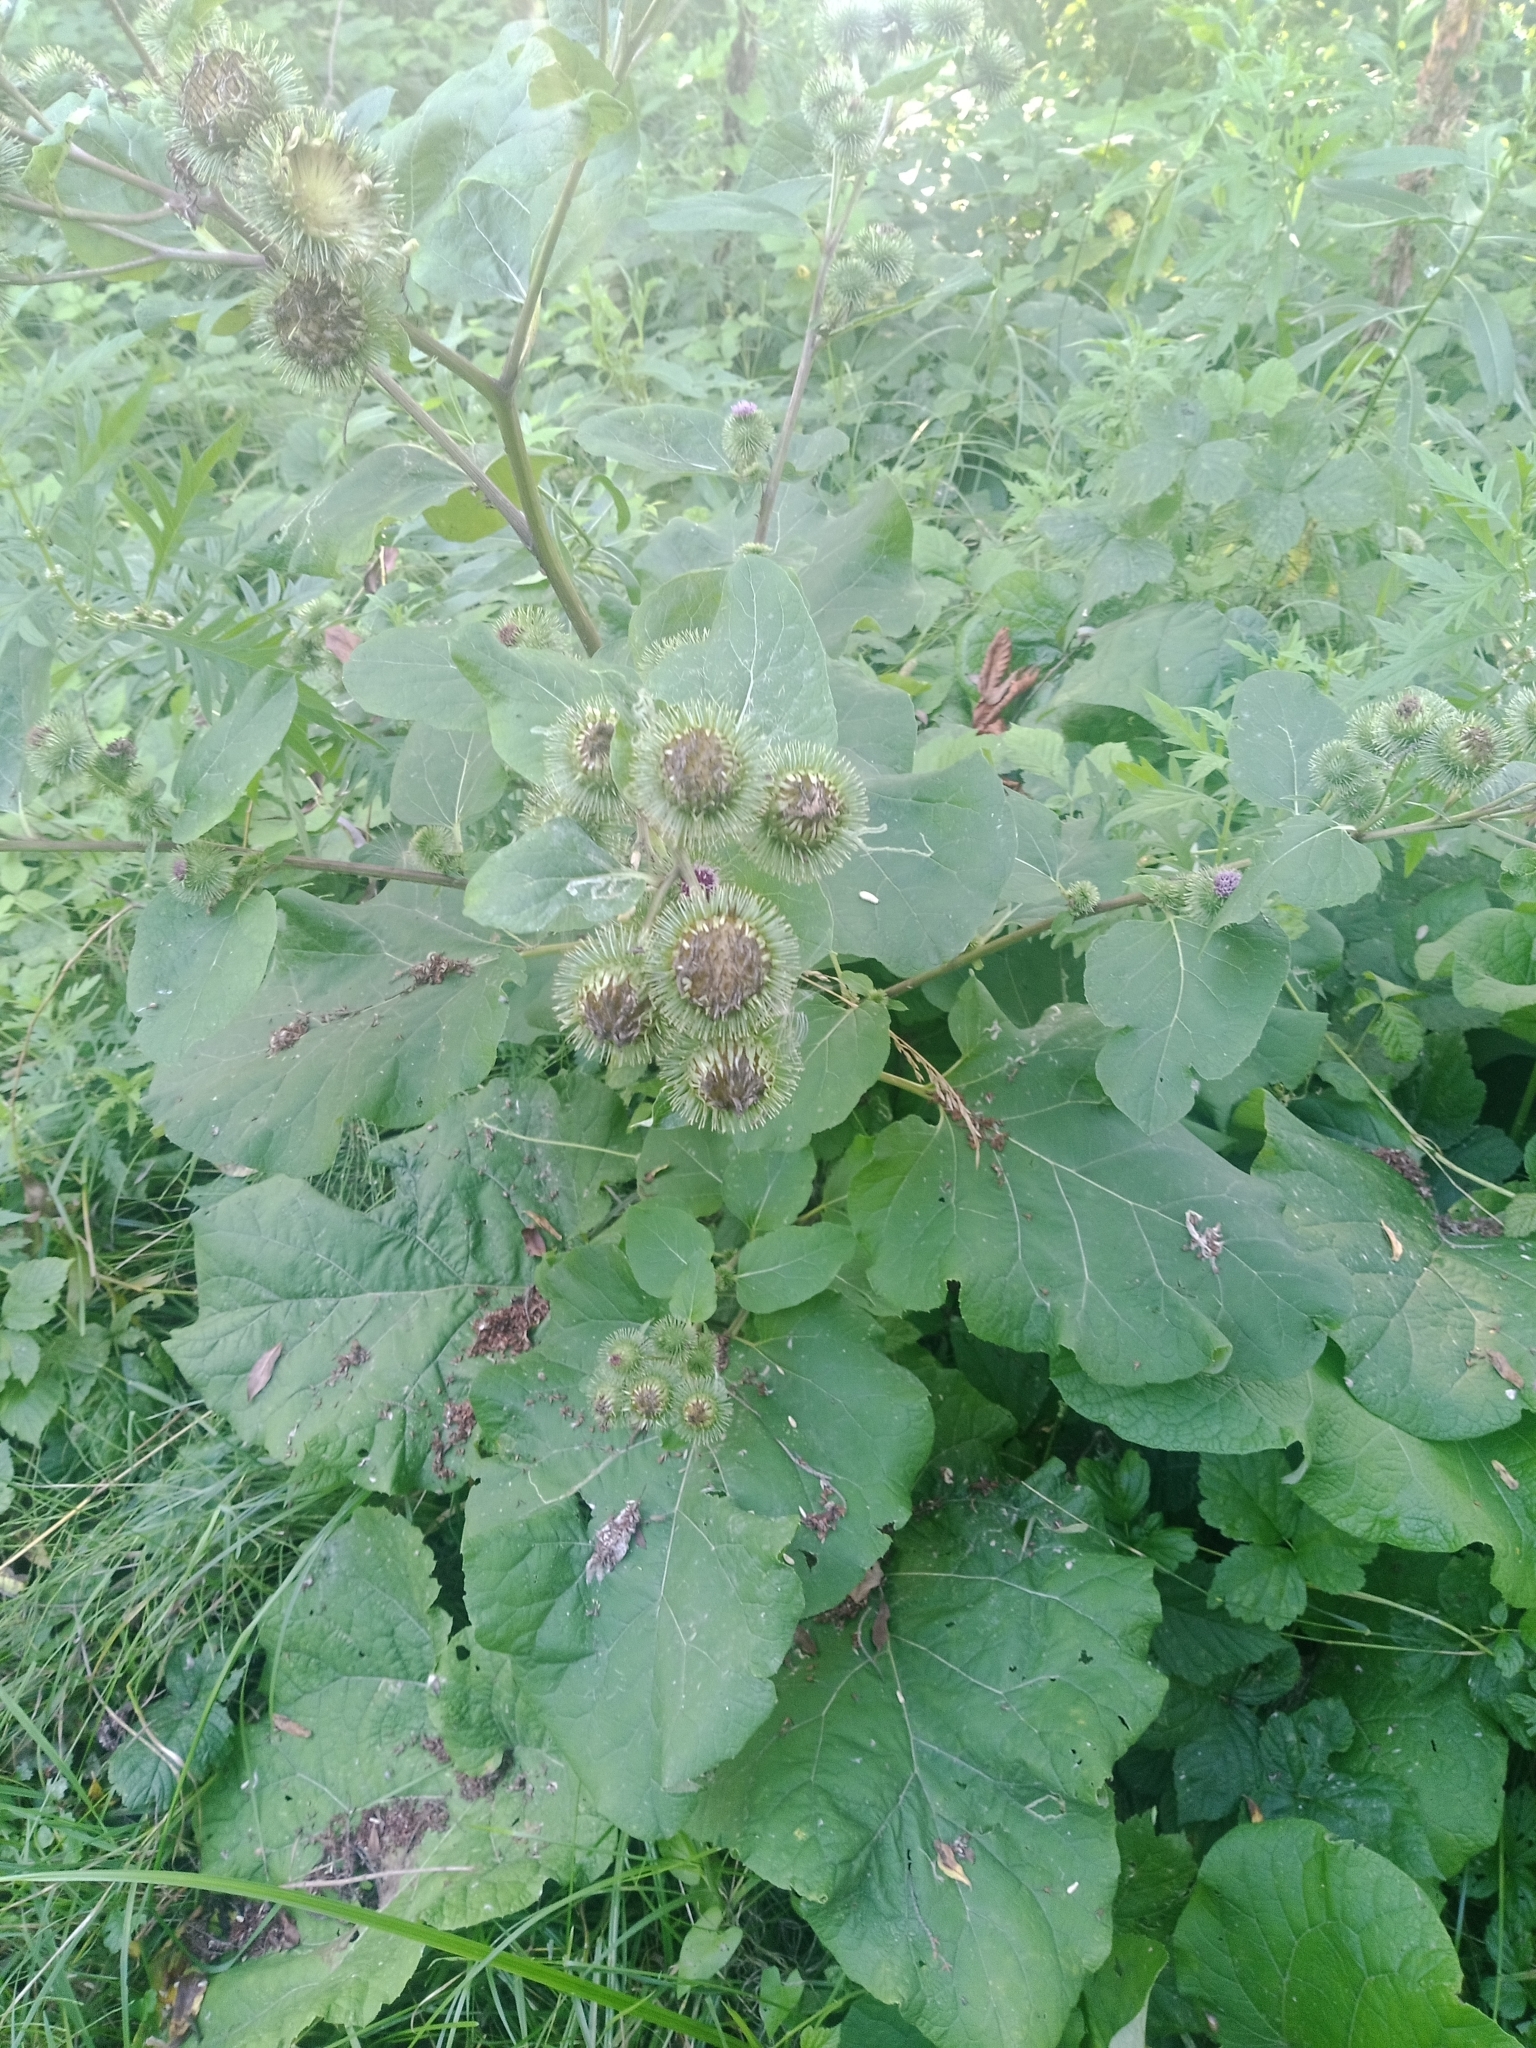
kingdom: Plantae
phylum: Tracheophyta
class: Magnoliopsida
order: Asterales
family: Asteraceae
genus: Arctium
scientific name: Arctium lappa
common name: Greater burdock
